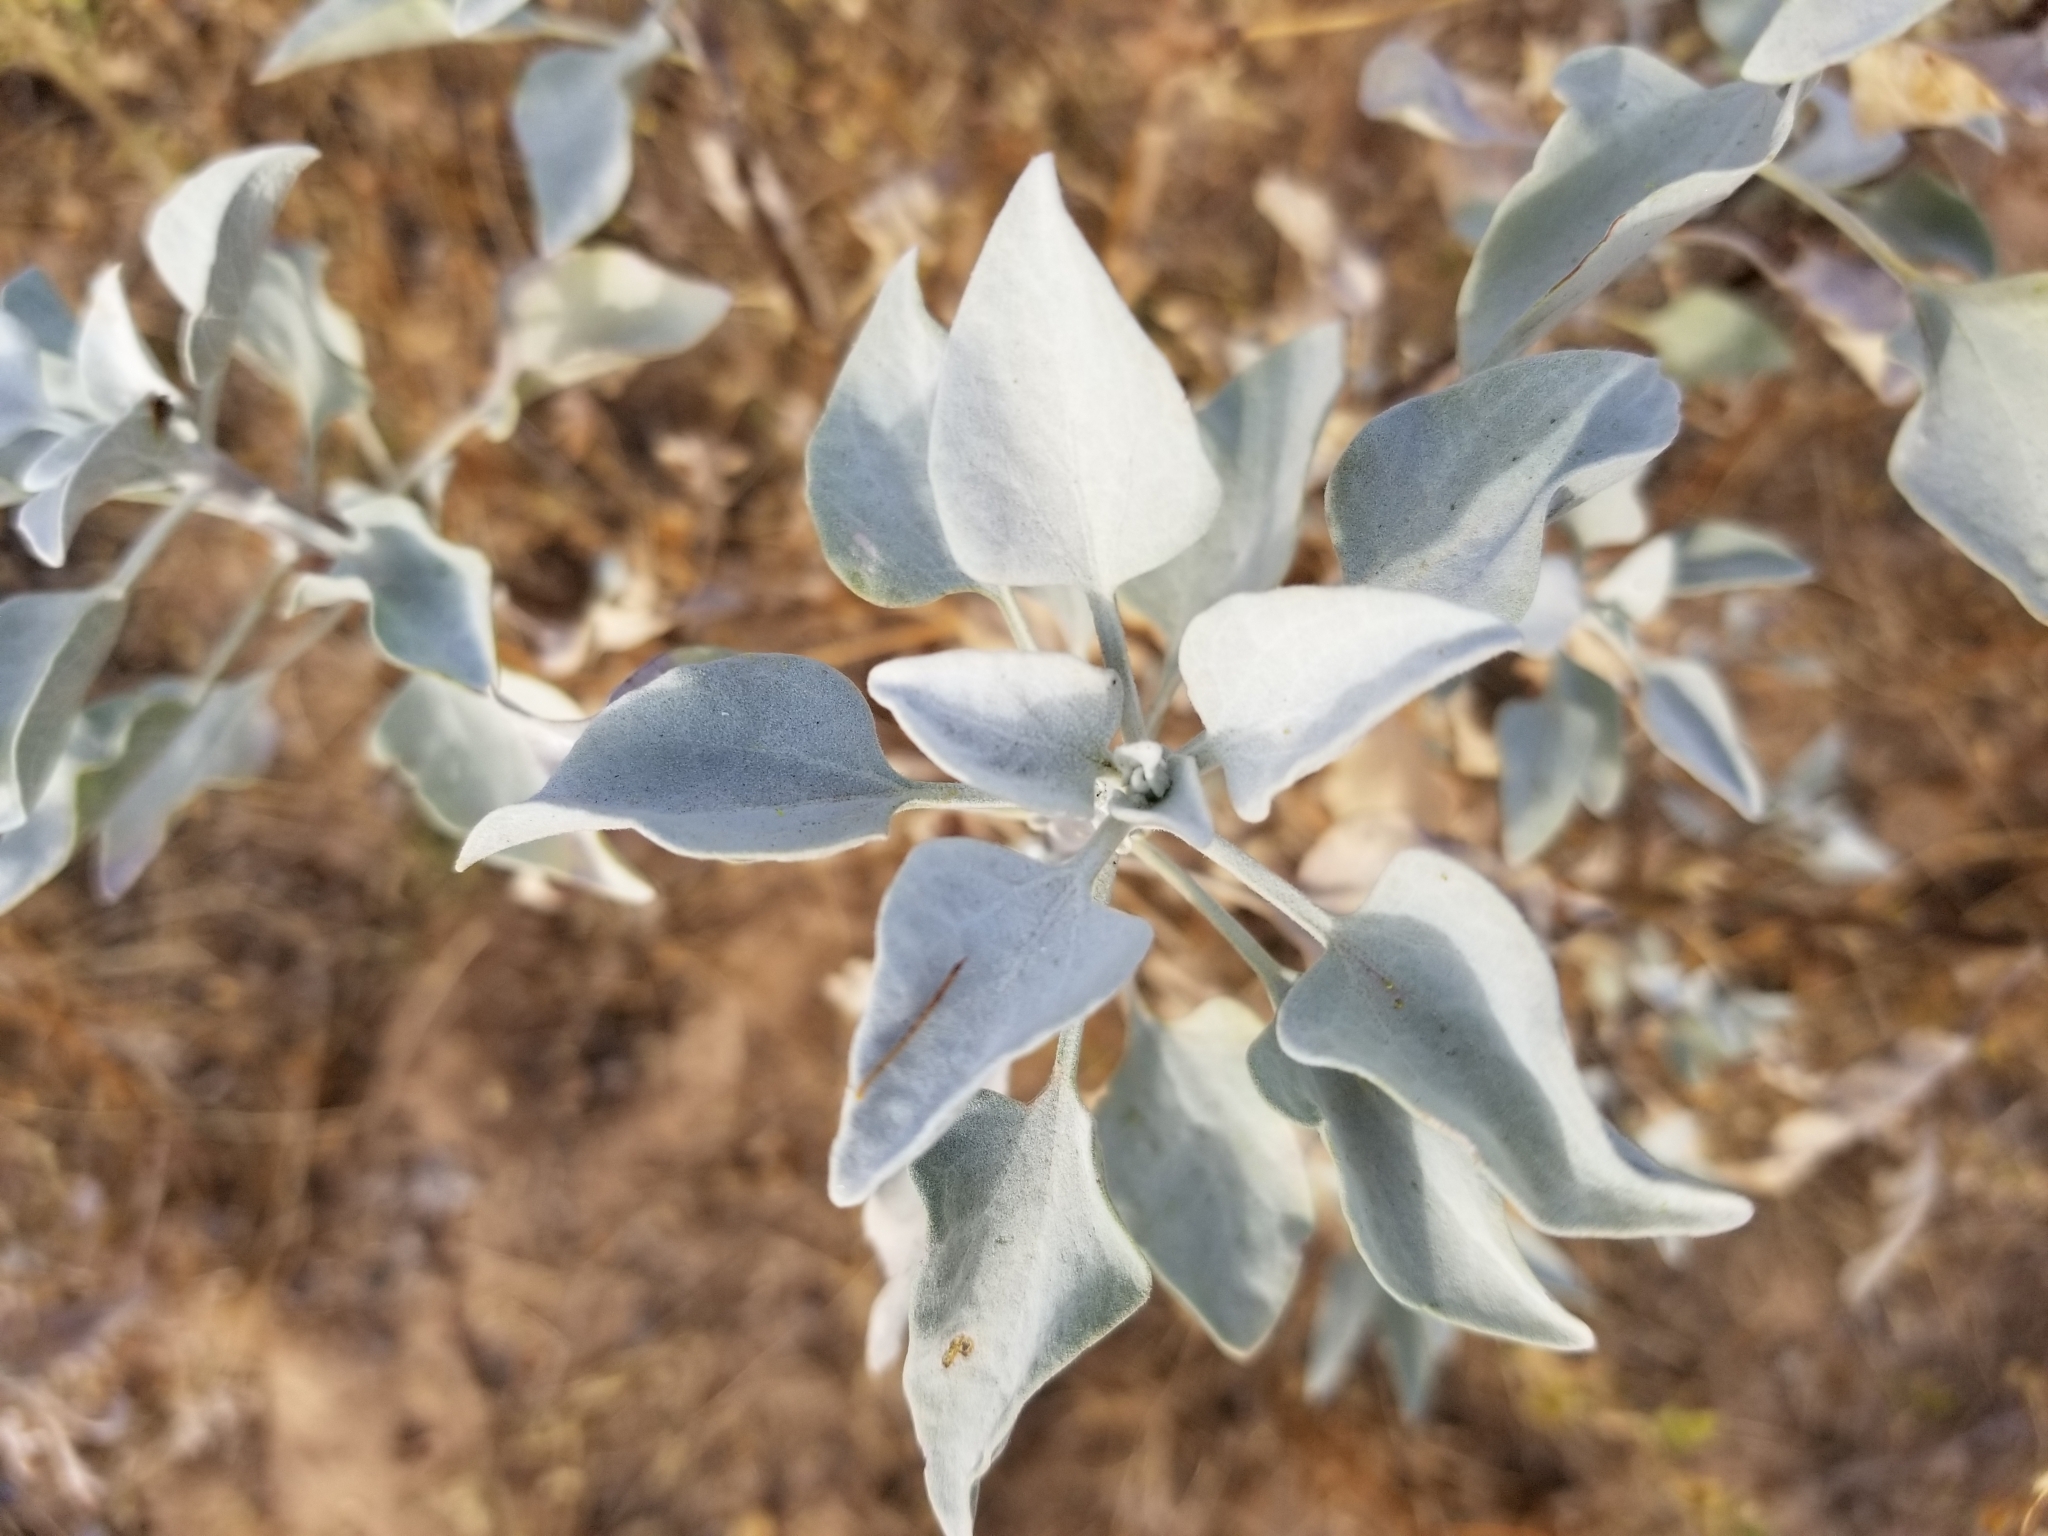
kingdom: Plantae
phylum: Tracheophyta
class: Magnoliopsida
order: Asterales
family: Asteraceae
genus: Encelia
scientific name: Encelia farinosa
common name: Brittlebush
